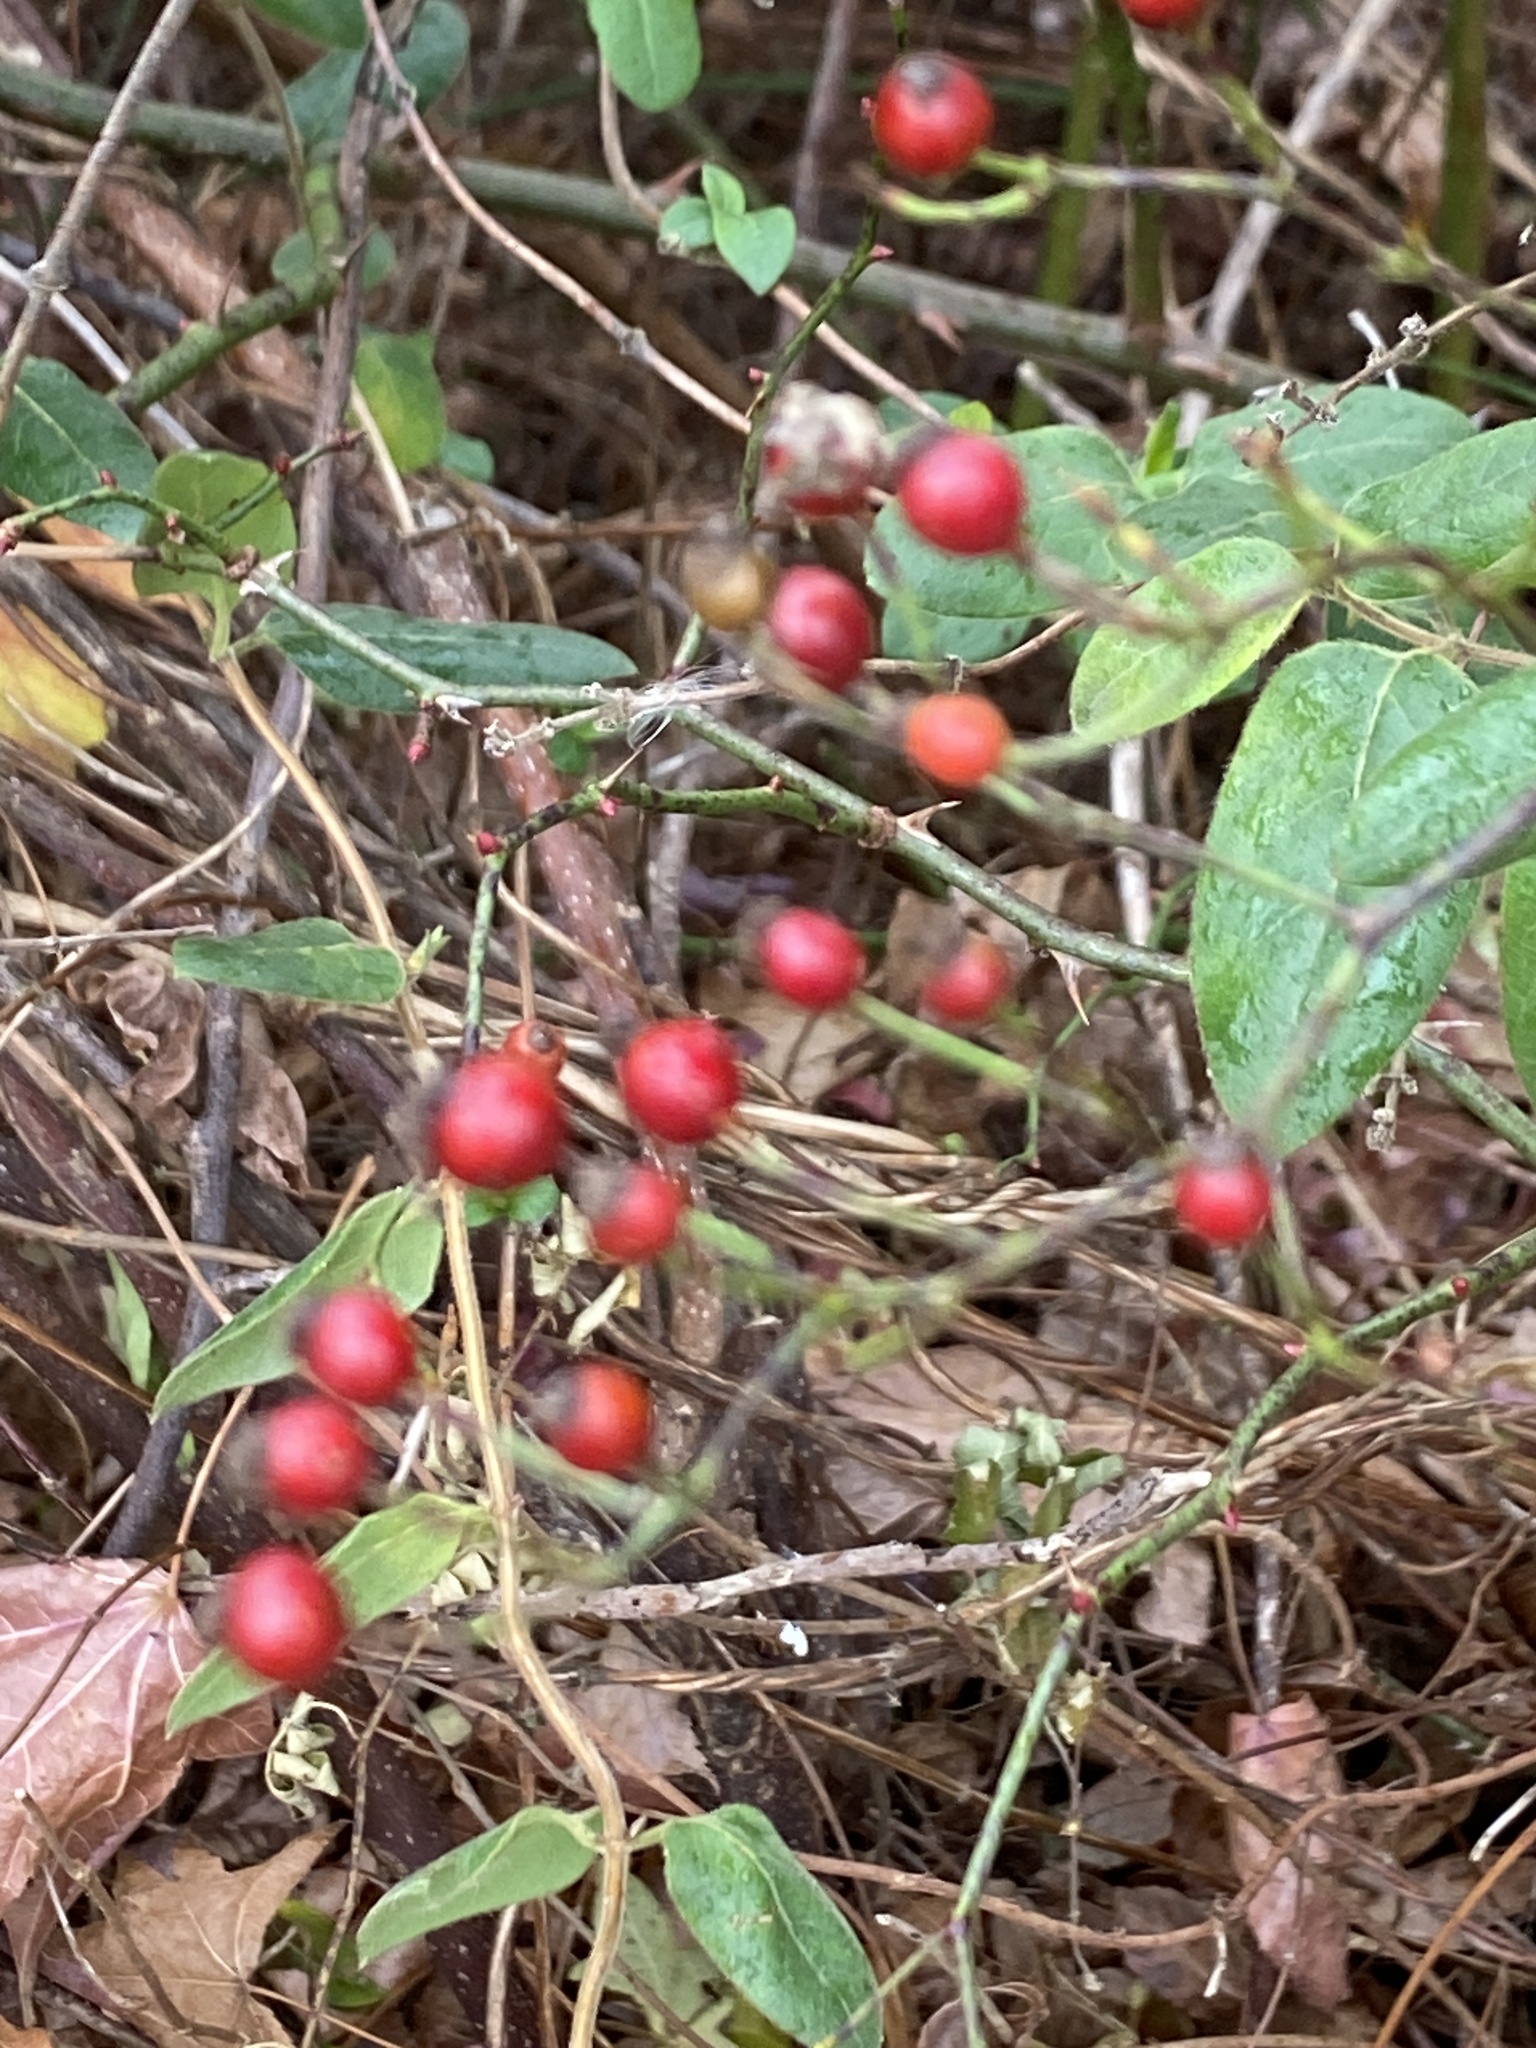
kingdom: Plantae
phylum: Tracheophyta
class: Magnoliopsida
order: Rosales
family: Rosaceae
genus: Rosa
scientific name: Rosa multiflora
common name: Multiflora rose
